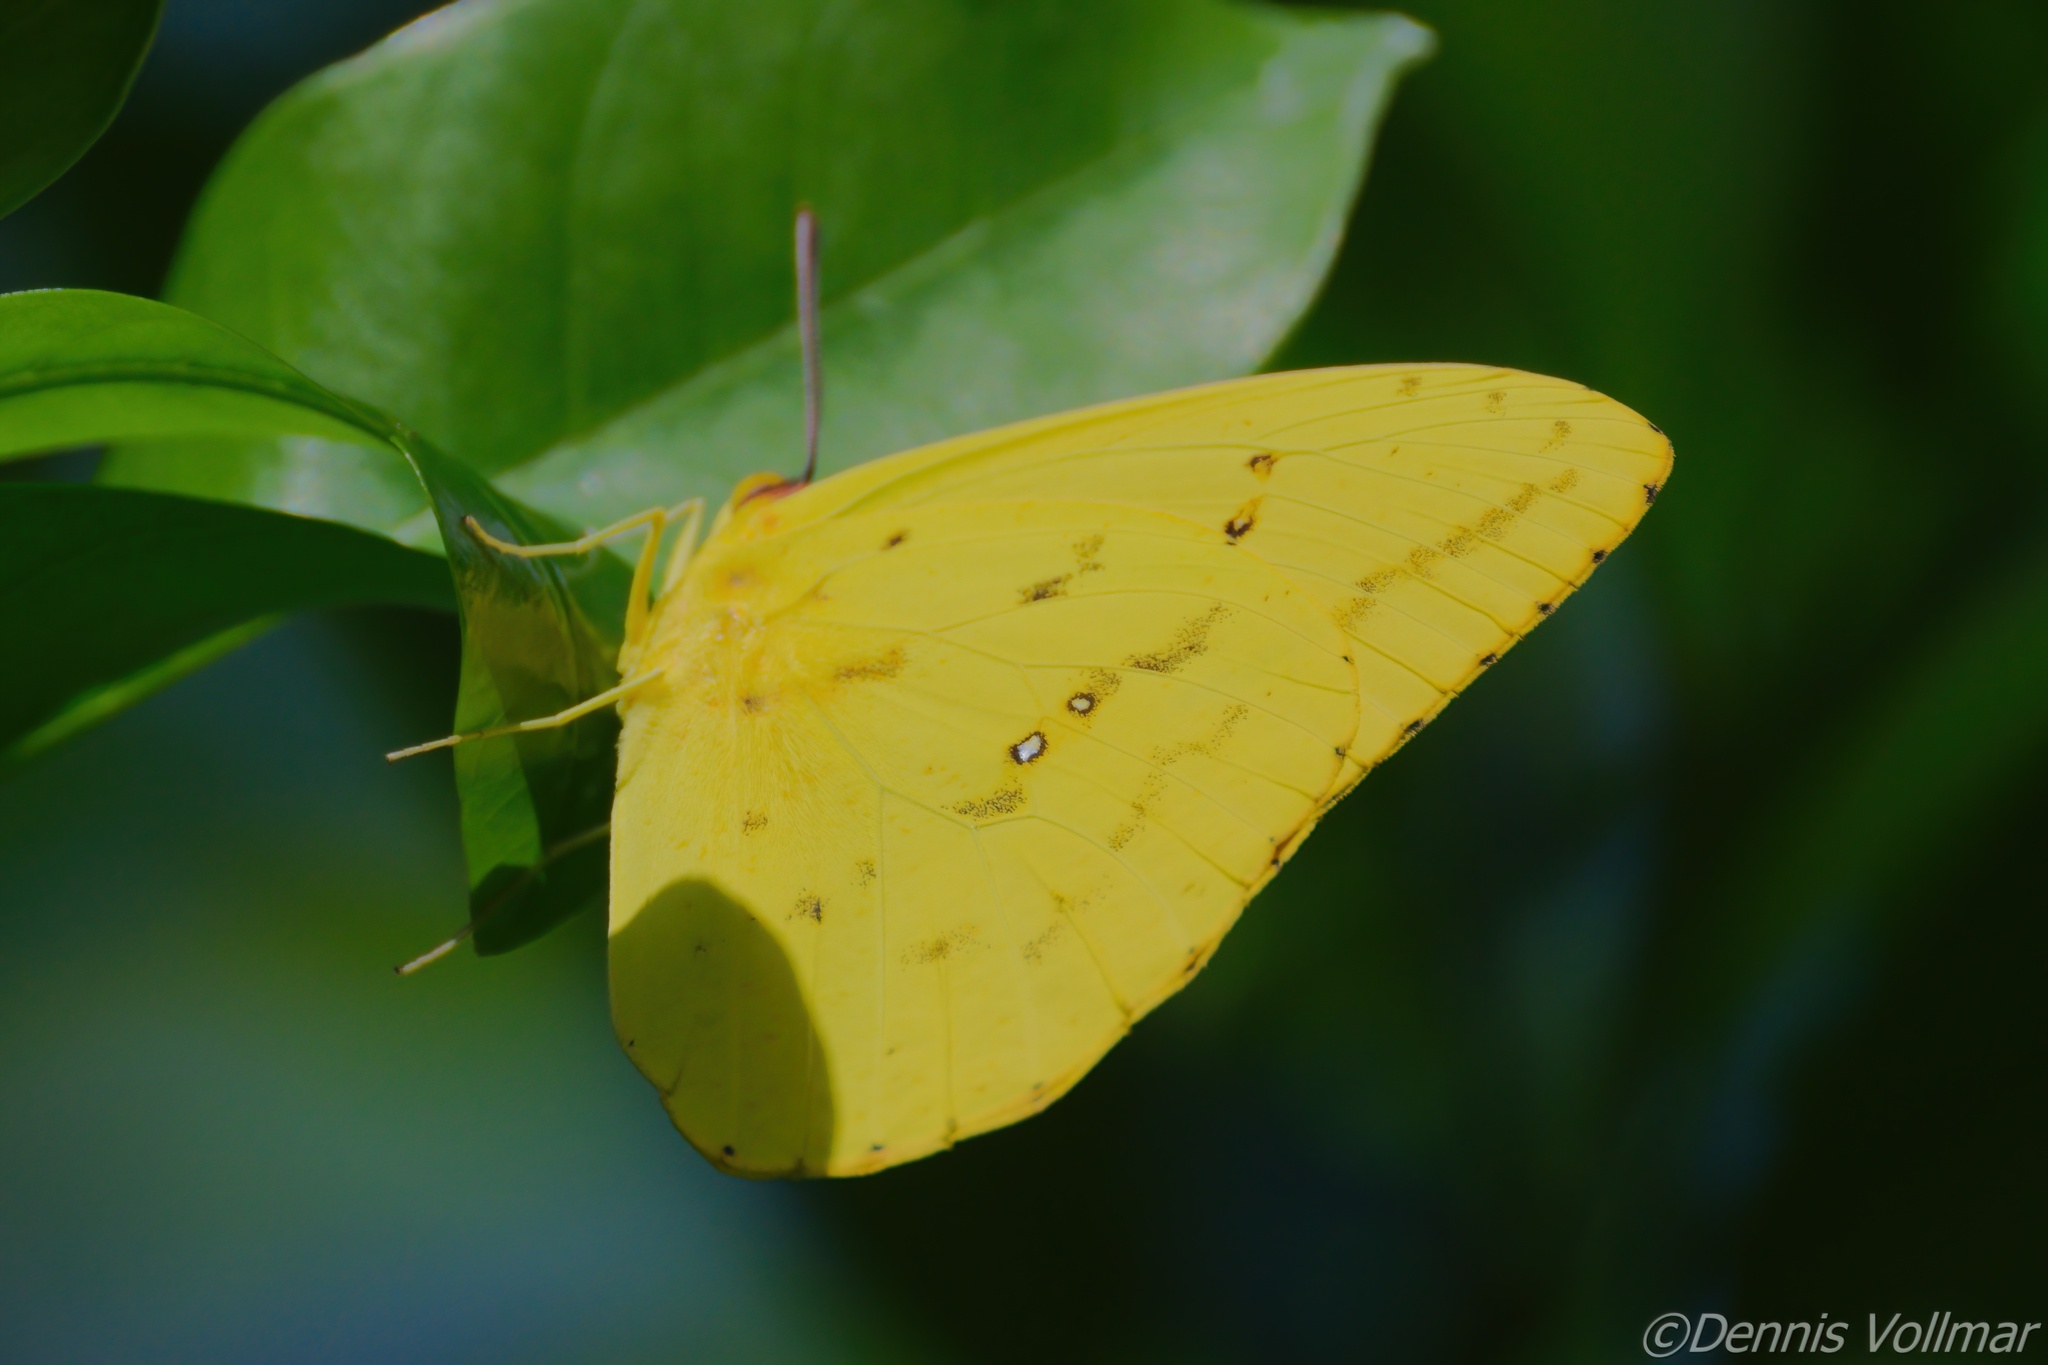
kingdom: Animalia
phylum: Arthropoda
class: Insecta
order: Lepidoptera
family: Pieridae
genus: Phoebis
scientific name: Phoebis agarithe
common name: Large orange sulphur
